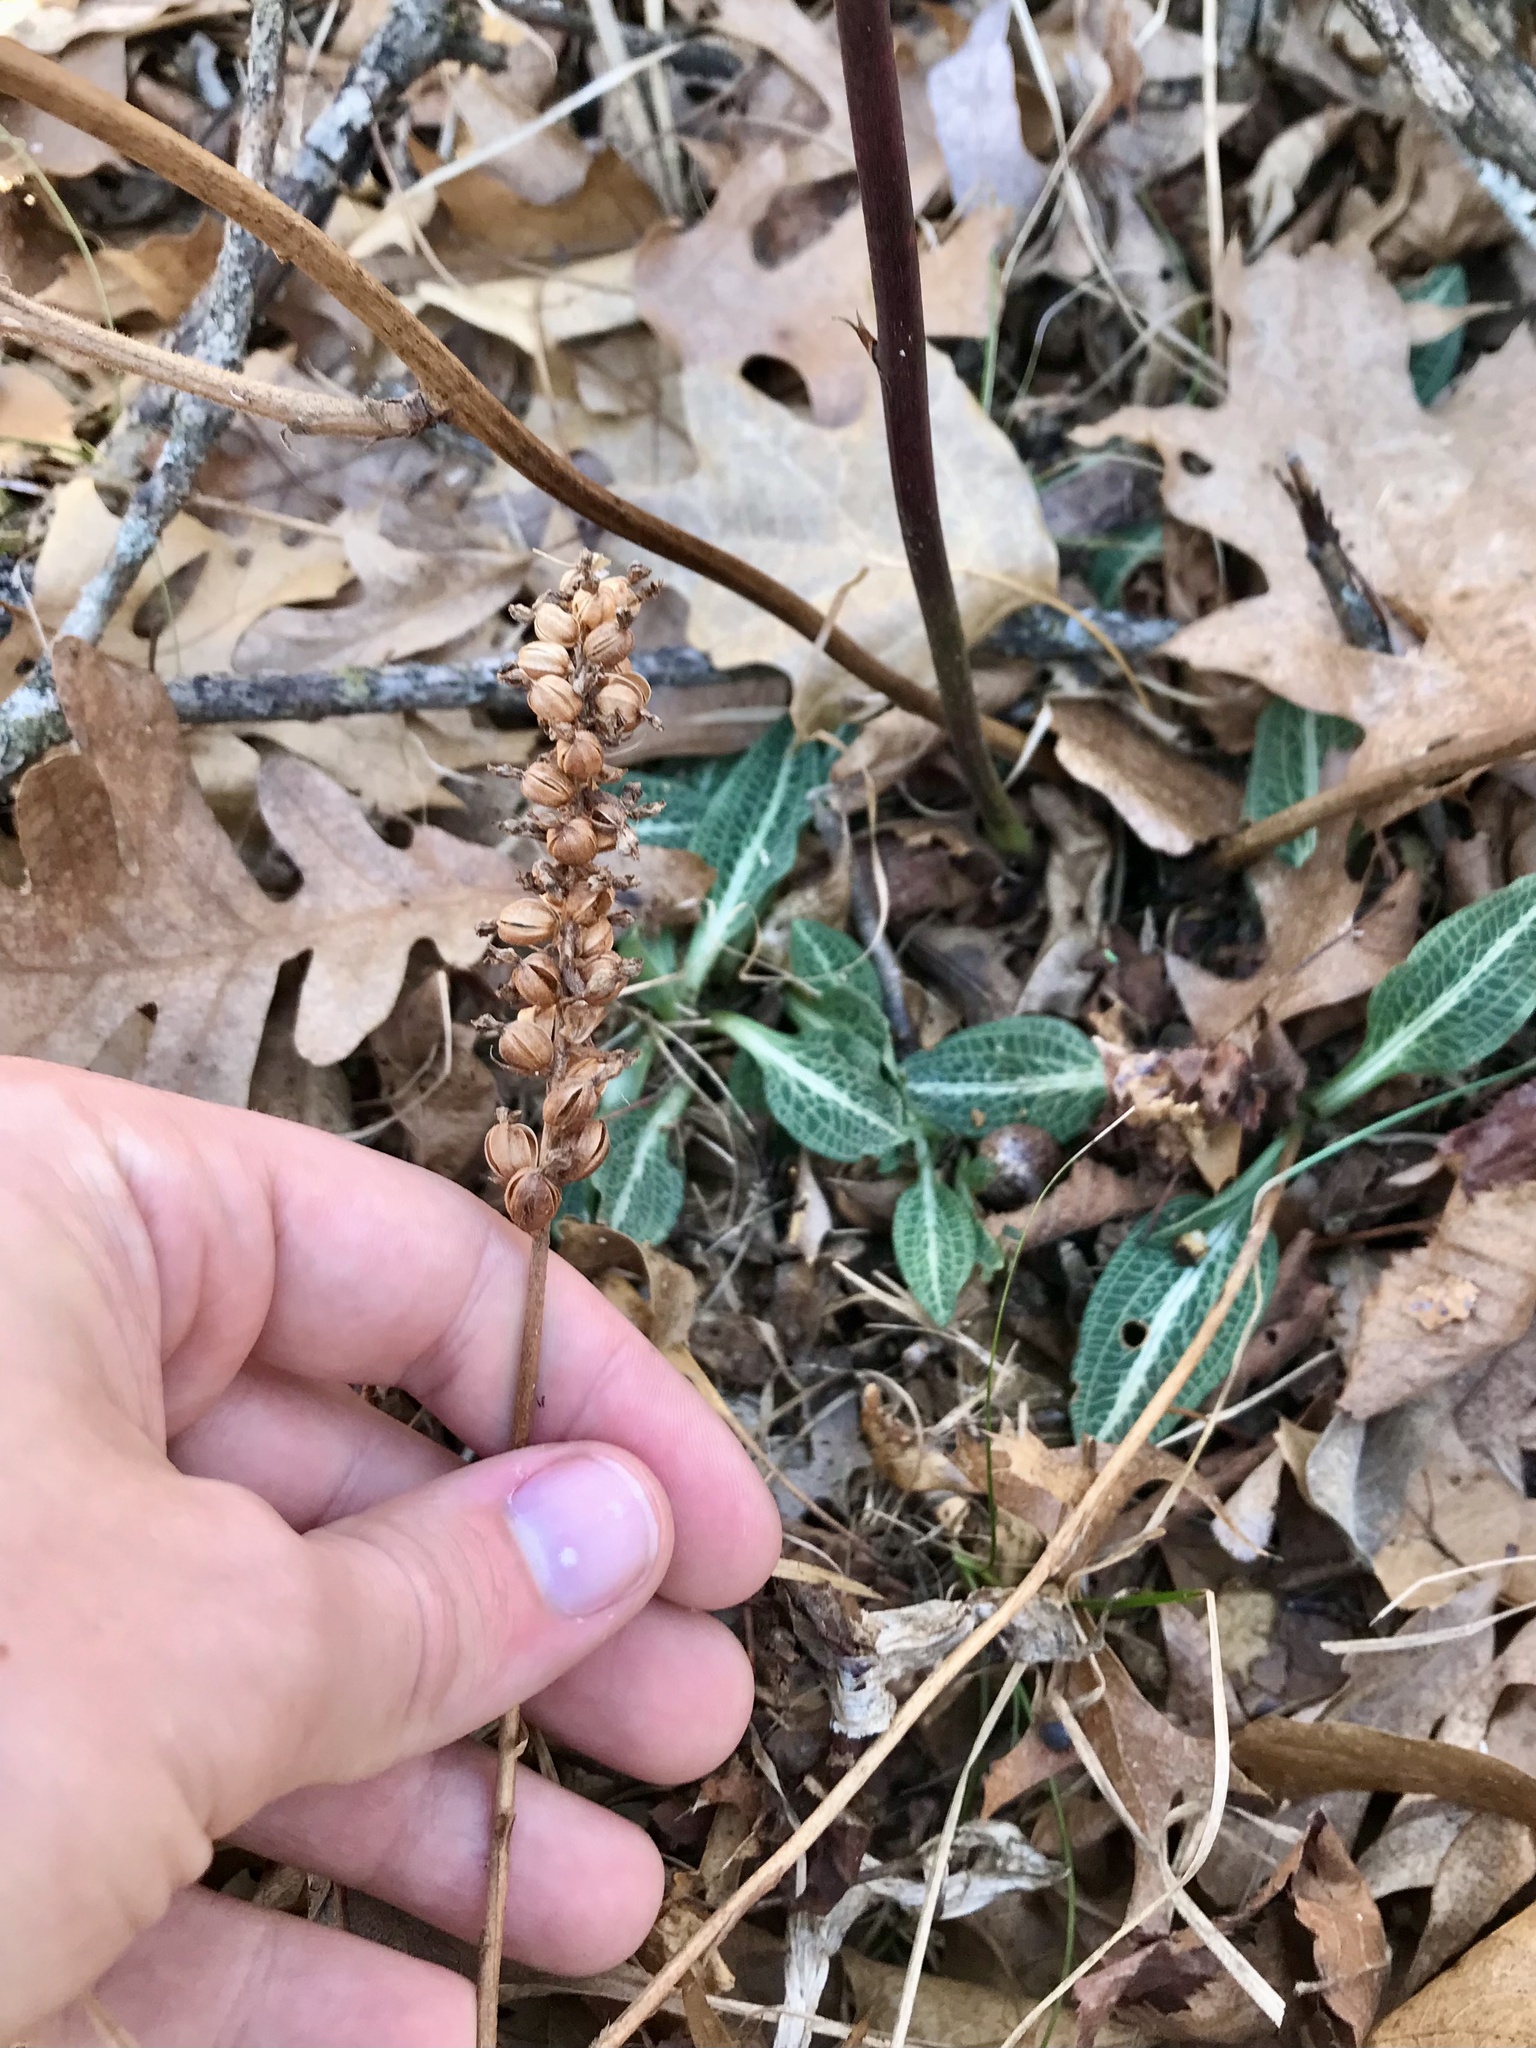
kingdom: Plantae
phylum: Tracheophyta
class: Liliopsida
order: Asparagales
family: Orchidaceae
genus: Goodyera
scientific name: Goodyera pubescens
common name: Downy rattlesnake-plantain
